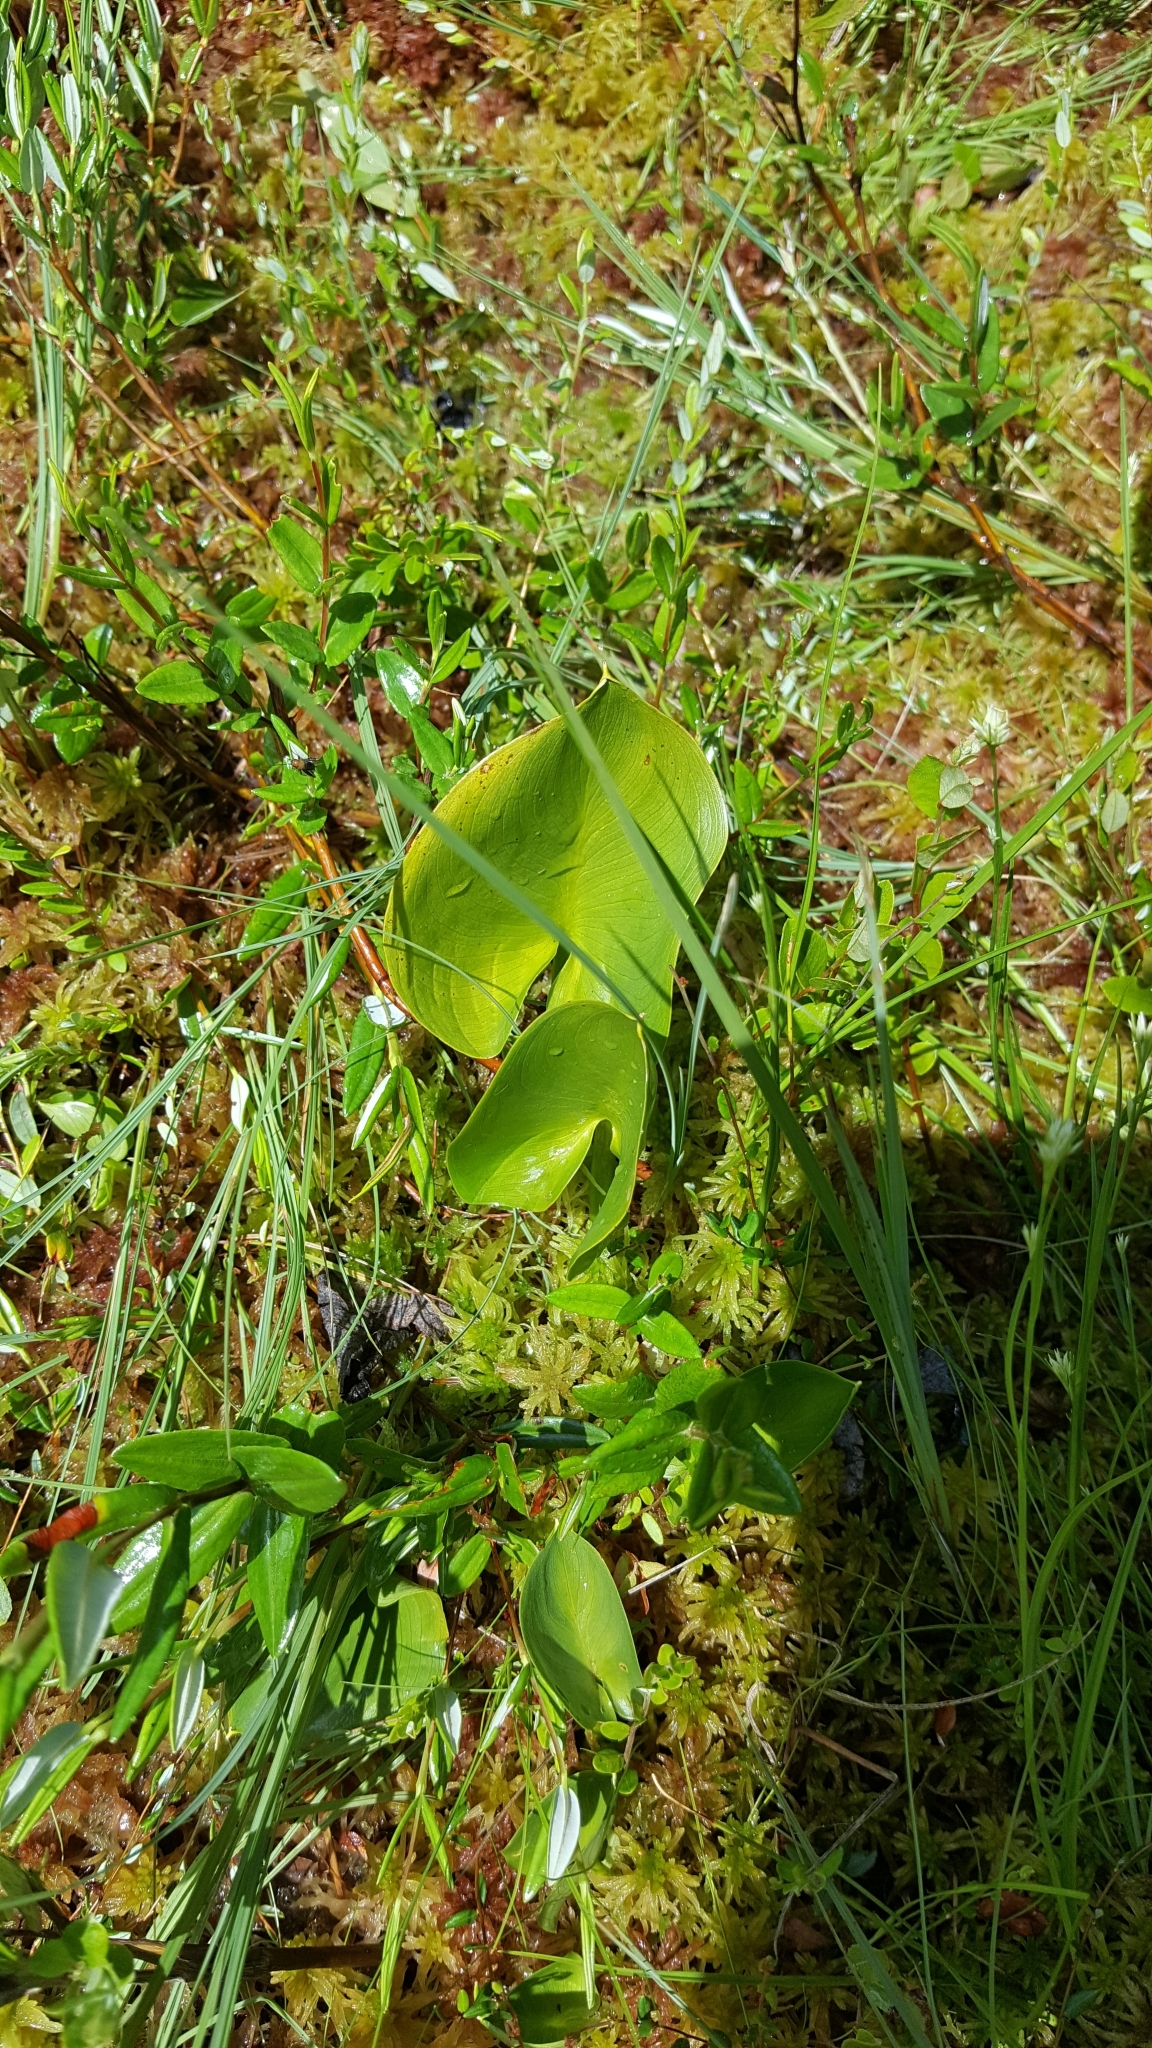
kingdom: Plantae
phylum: Tracheophyta
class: Liliopsida
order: Alismatales
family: Araceae
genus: Calla
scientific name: Calla palustris
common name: Bog arum
